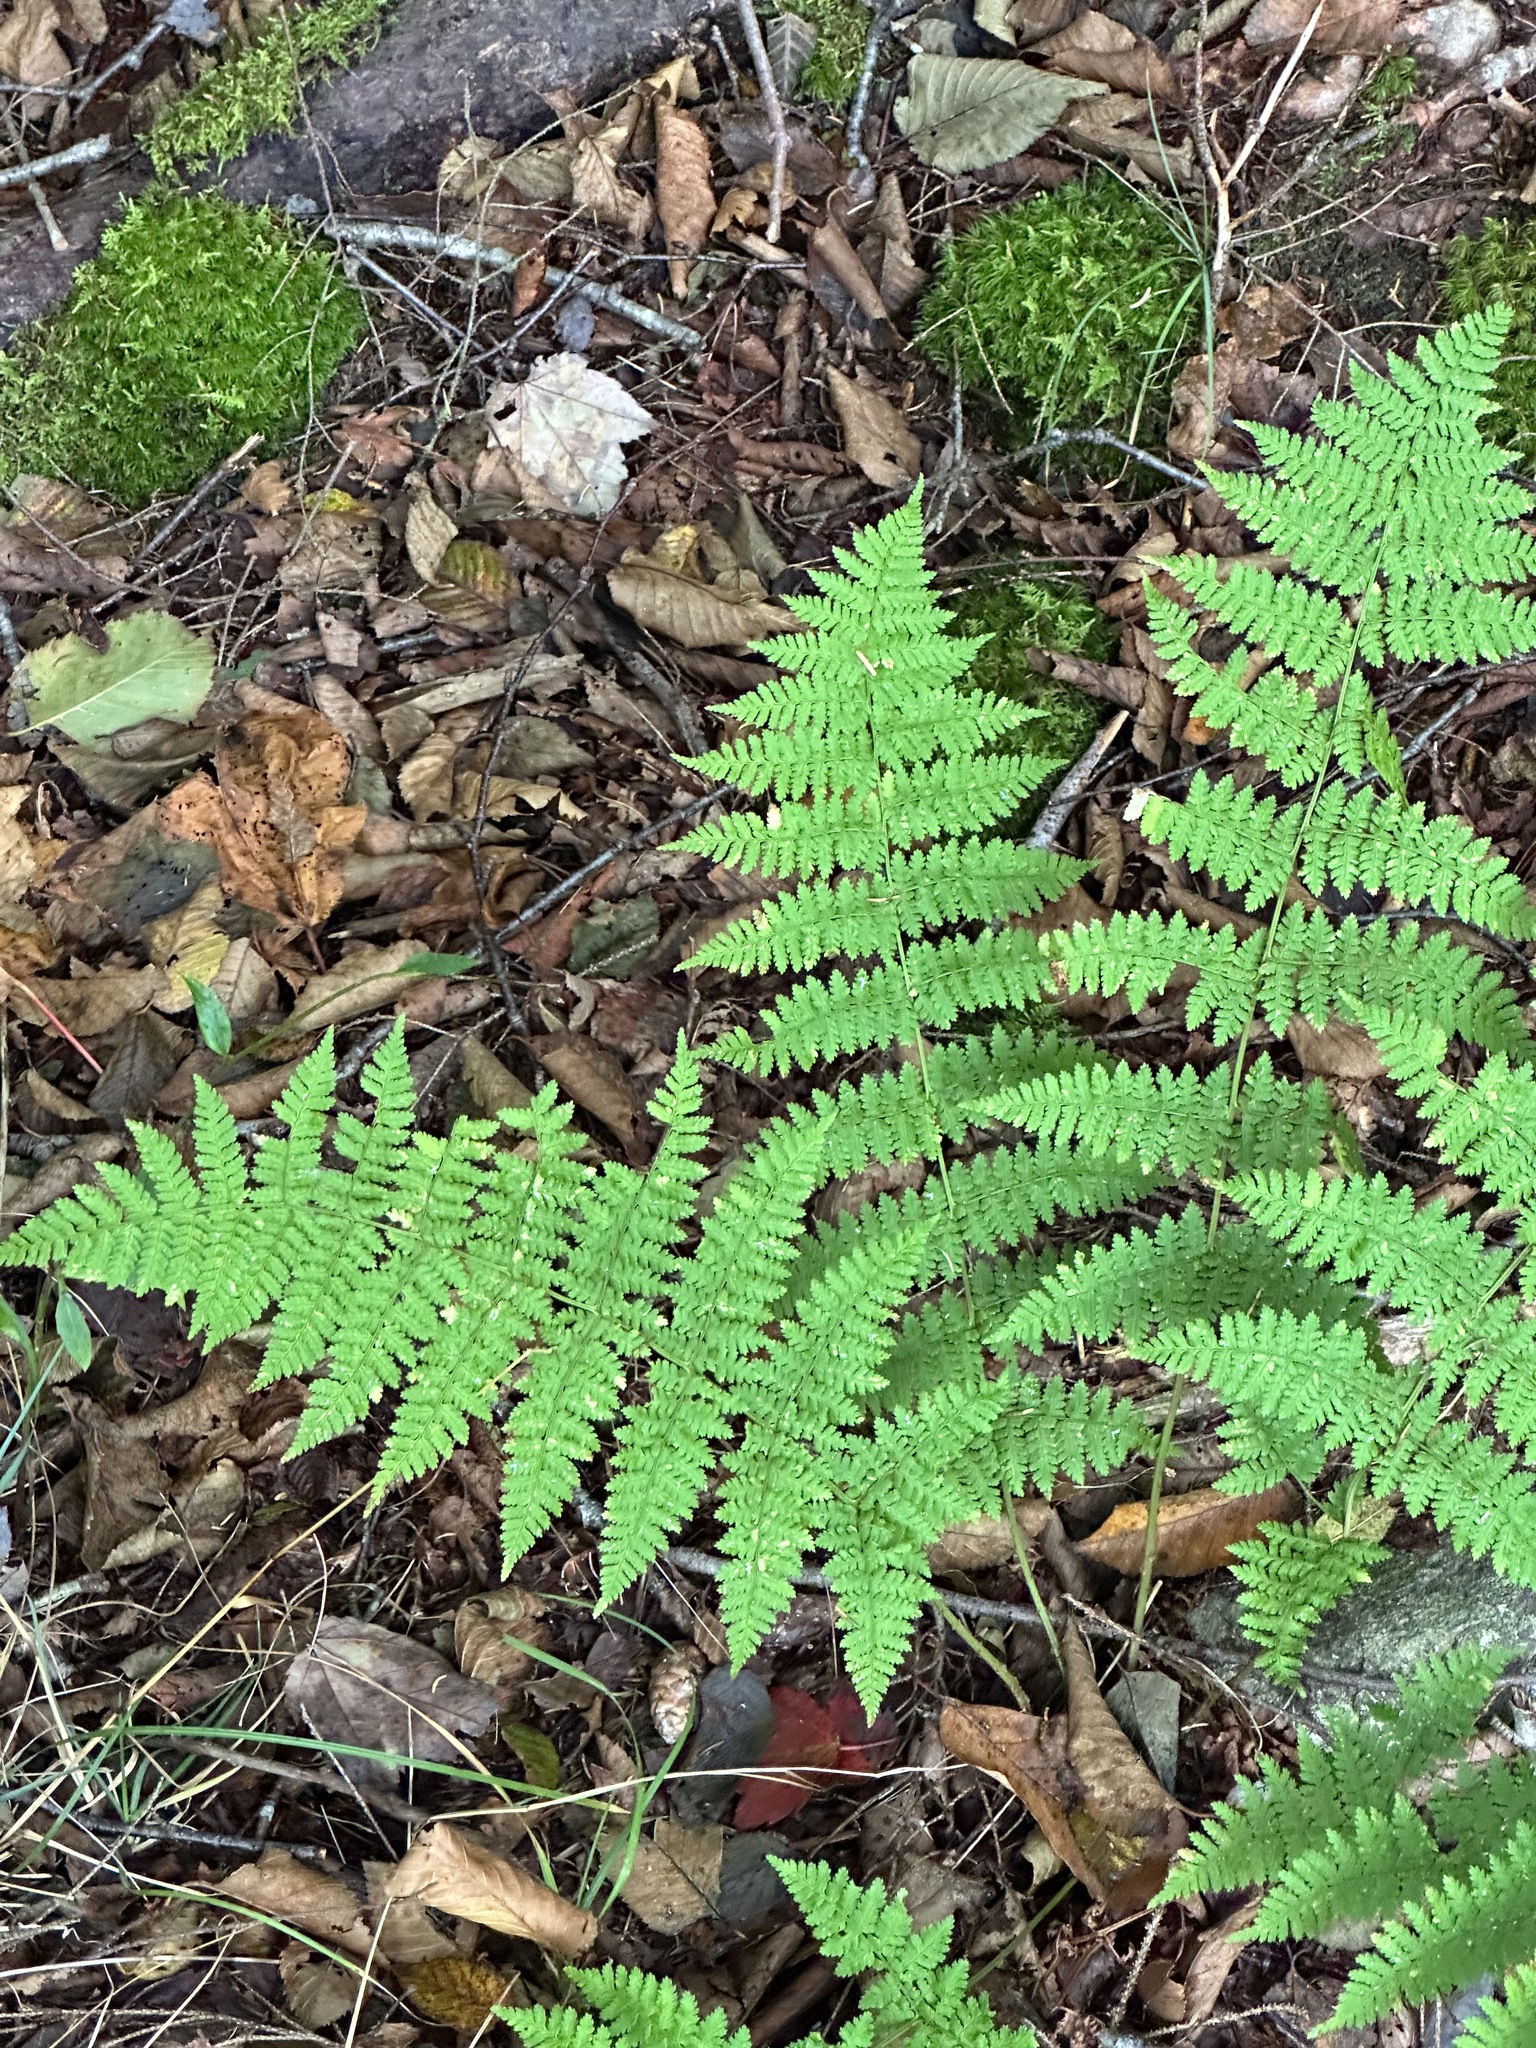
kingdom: Plantae
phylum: Tracheophyta
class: Polypodiopsida
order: Polypodiales
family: Dennstaedtiaceae
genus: Sitobolium
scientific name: Sitobolium punctilobum
